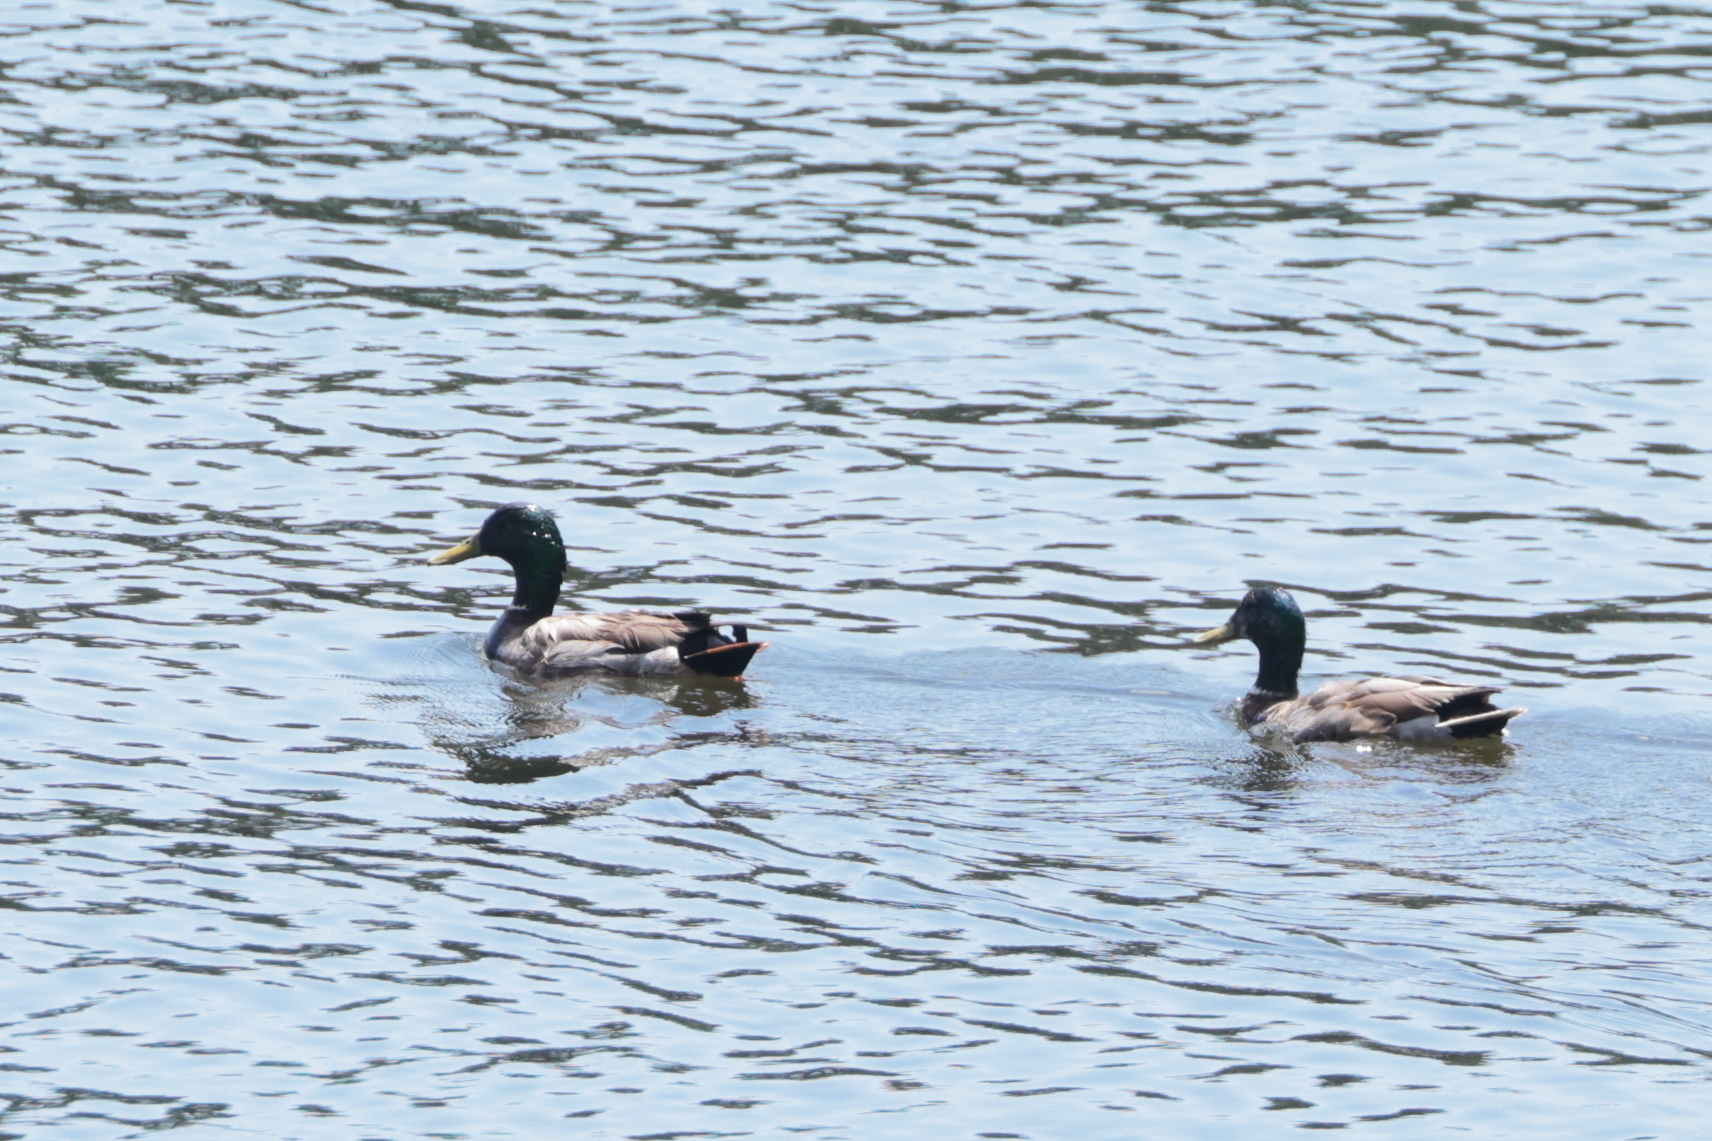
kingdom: Animalia
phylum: Chordata
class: Aves
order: Anseriformes
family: Anatidae
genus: Anas
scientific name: Anas platyrhynchos
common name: Mallard
